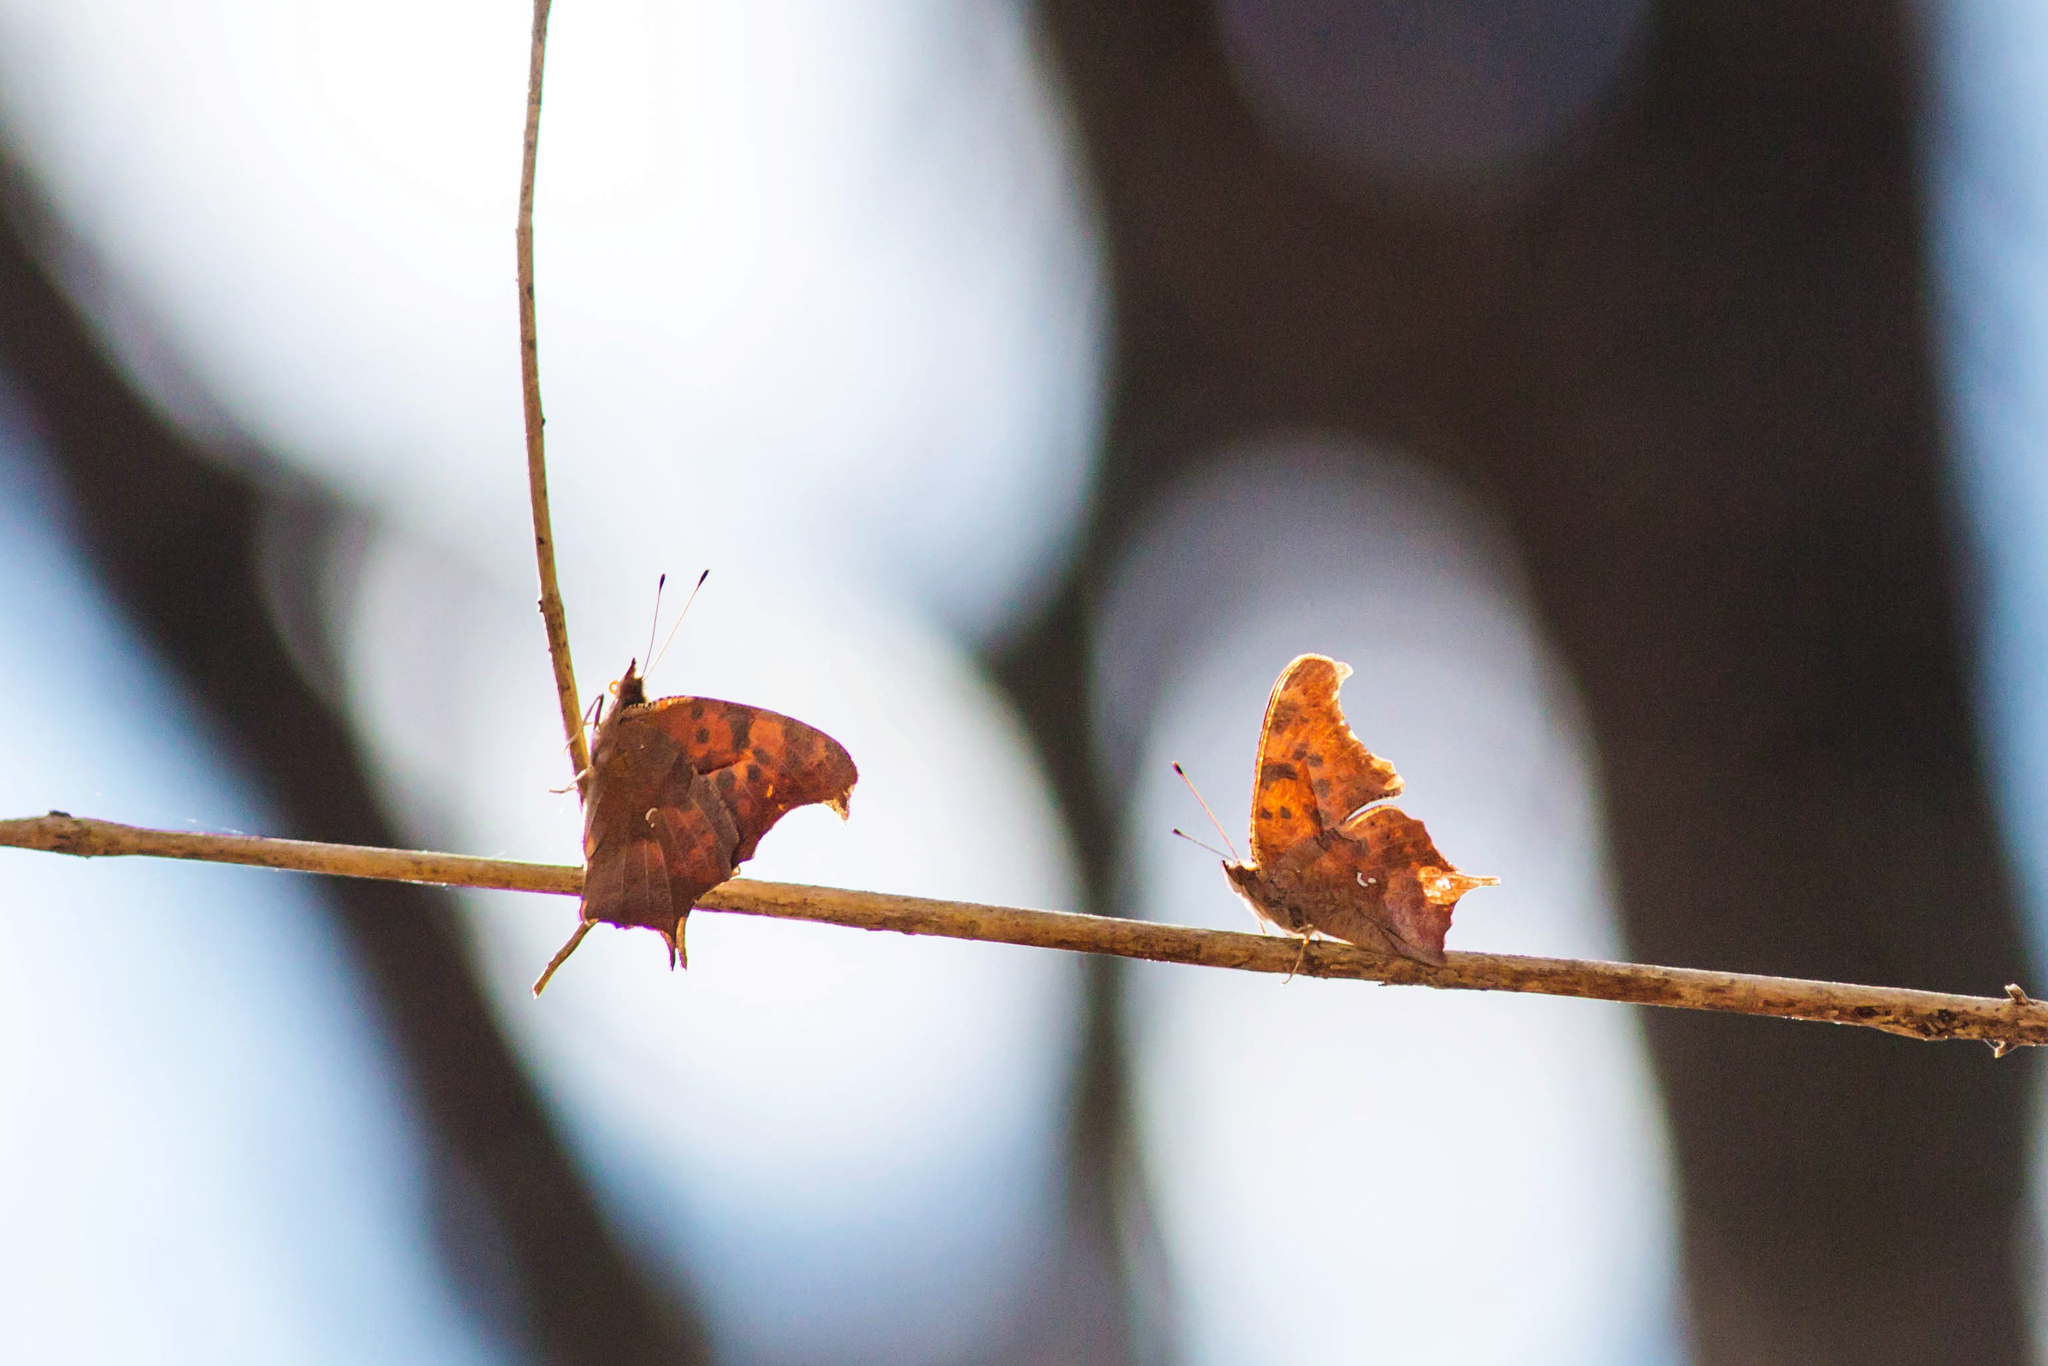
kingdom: Animalia
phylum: Arthropoda
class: Insecta
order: Lepidoptera
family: Nymphalidae
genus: Polygonia
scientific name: Polygonia interrogationis
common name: Question mark
